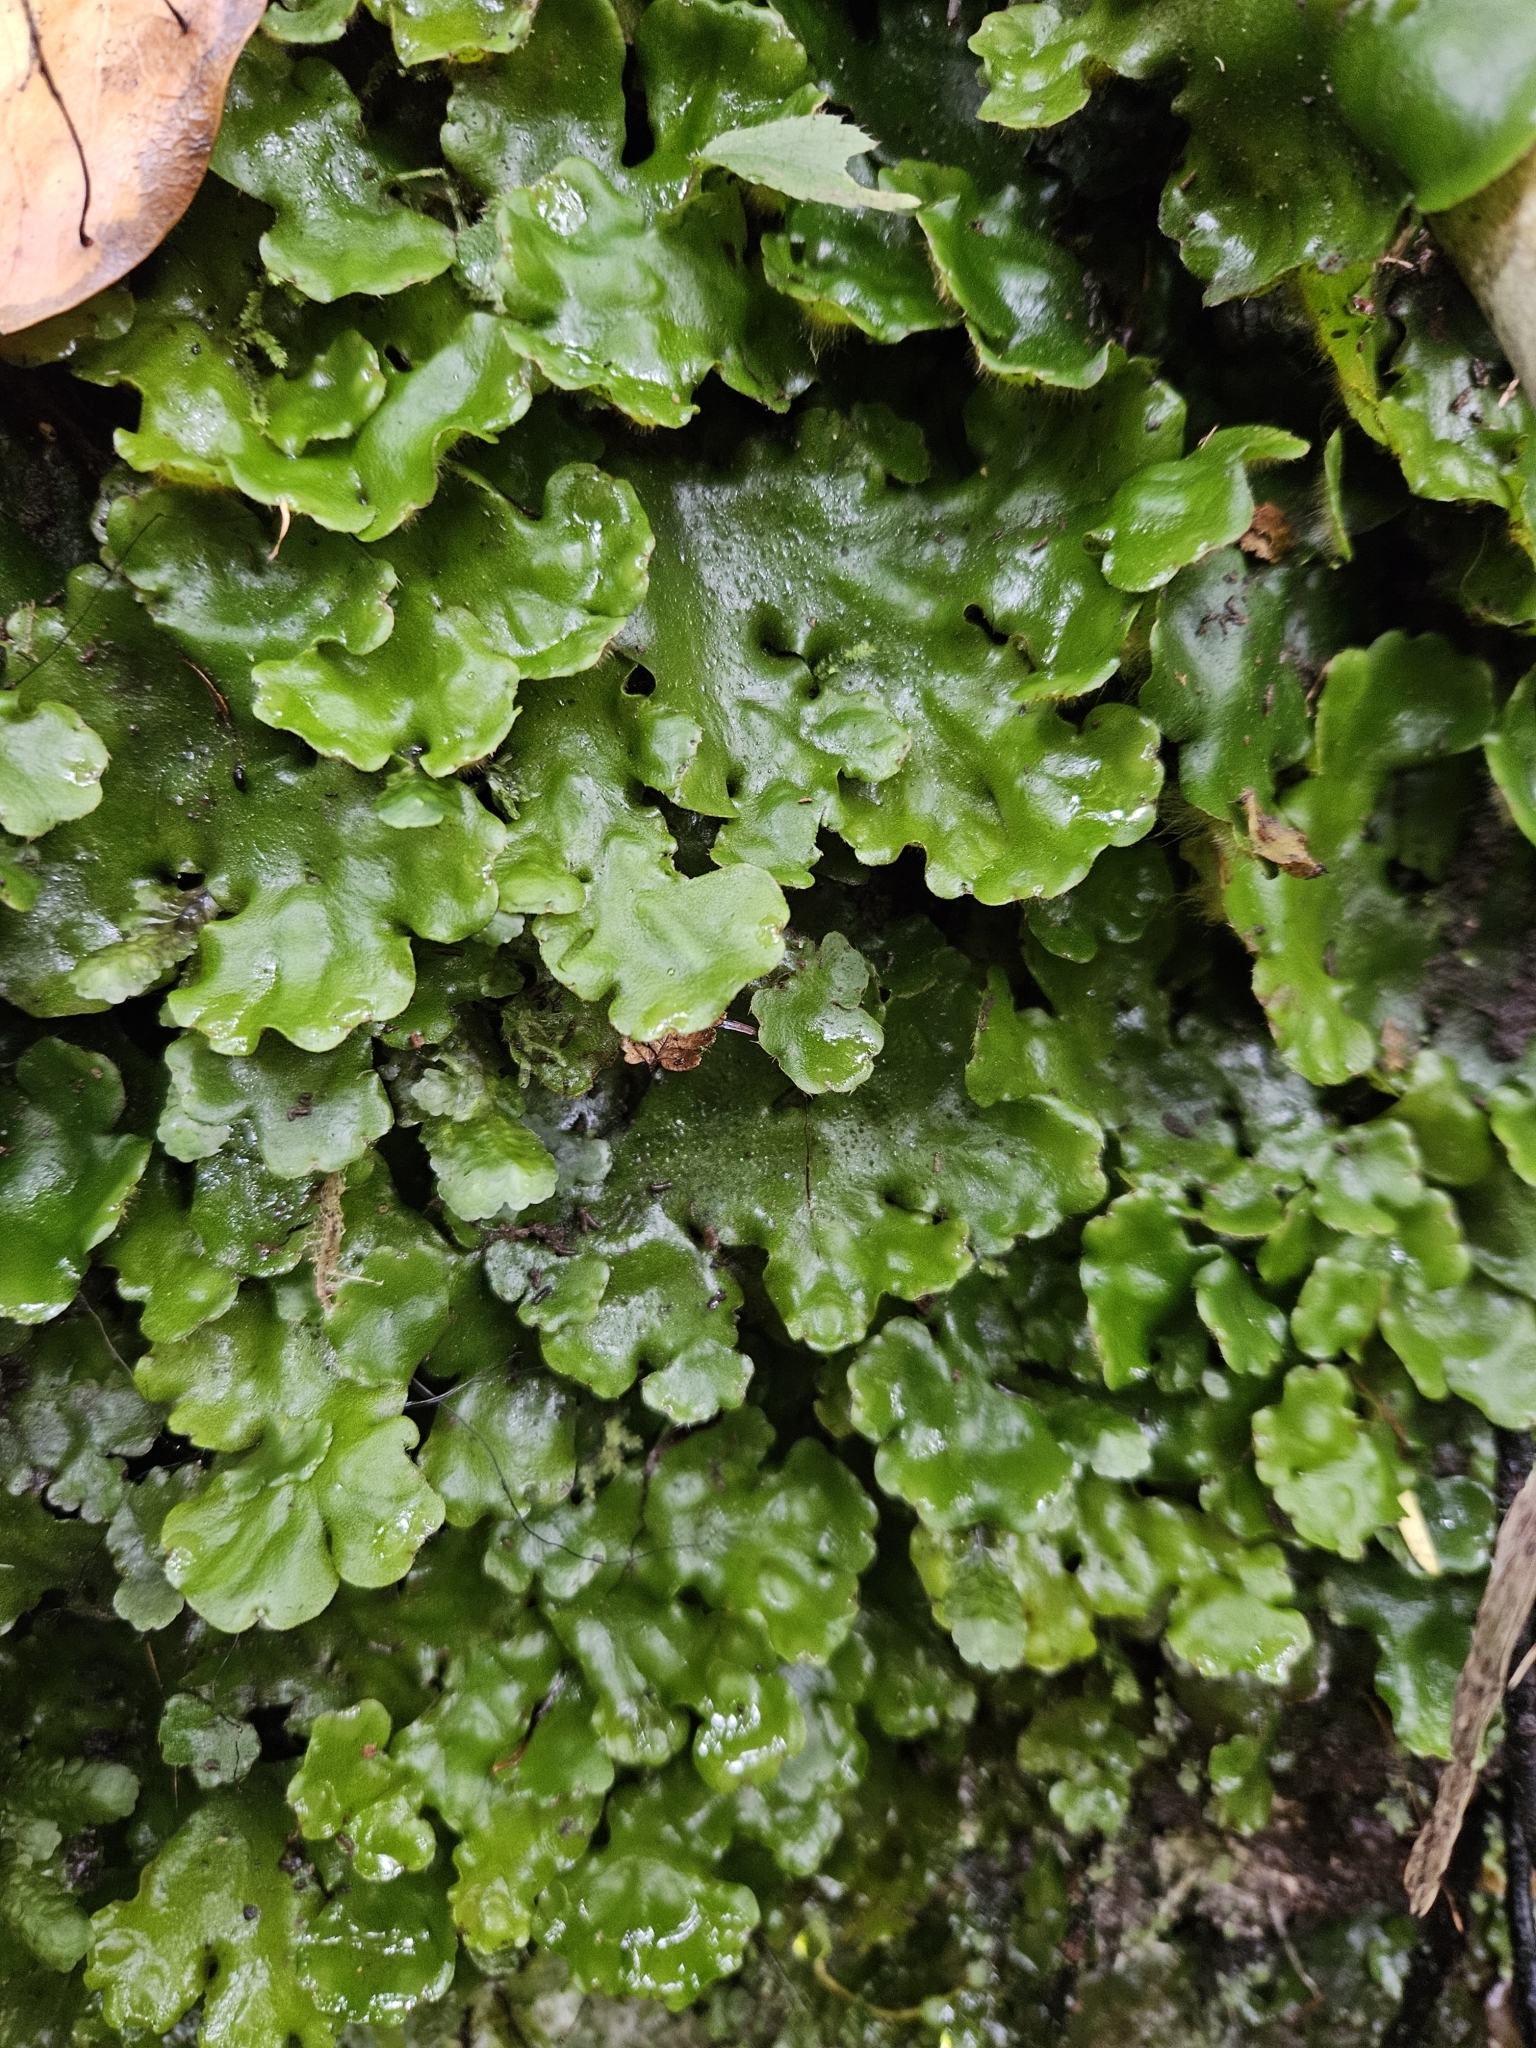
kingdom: Plantae
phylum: Marchantiophyta
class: Marchantiopsida
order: Marchantiales
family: Monocleaceae
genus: Monoclea
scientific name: Monoclea forsteri
